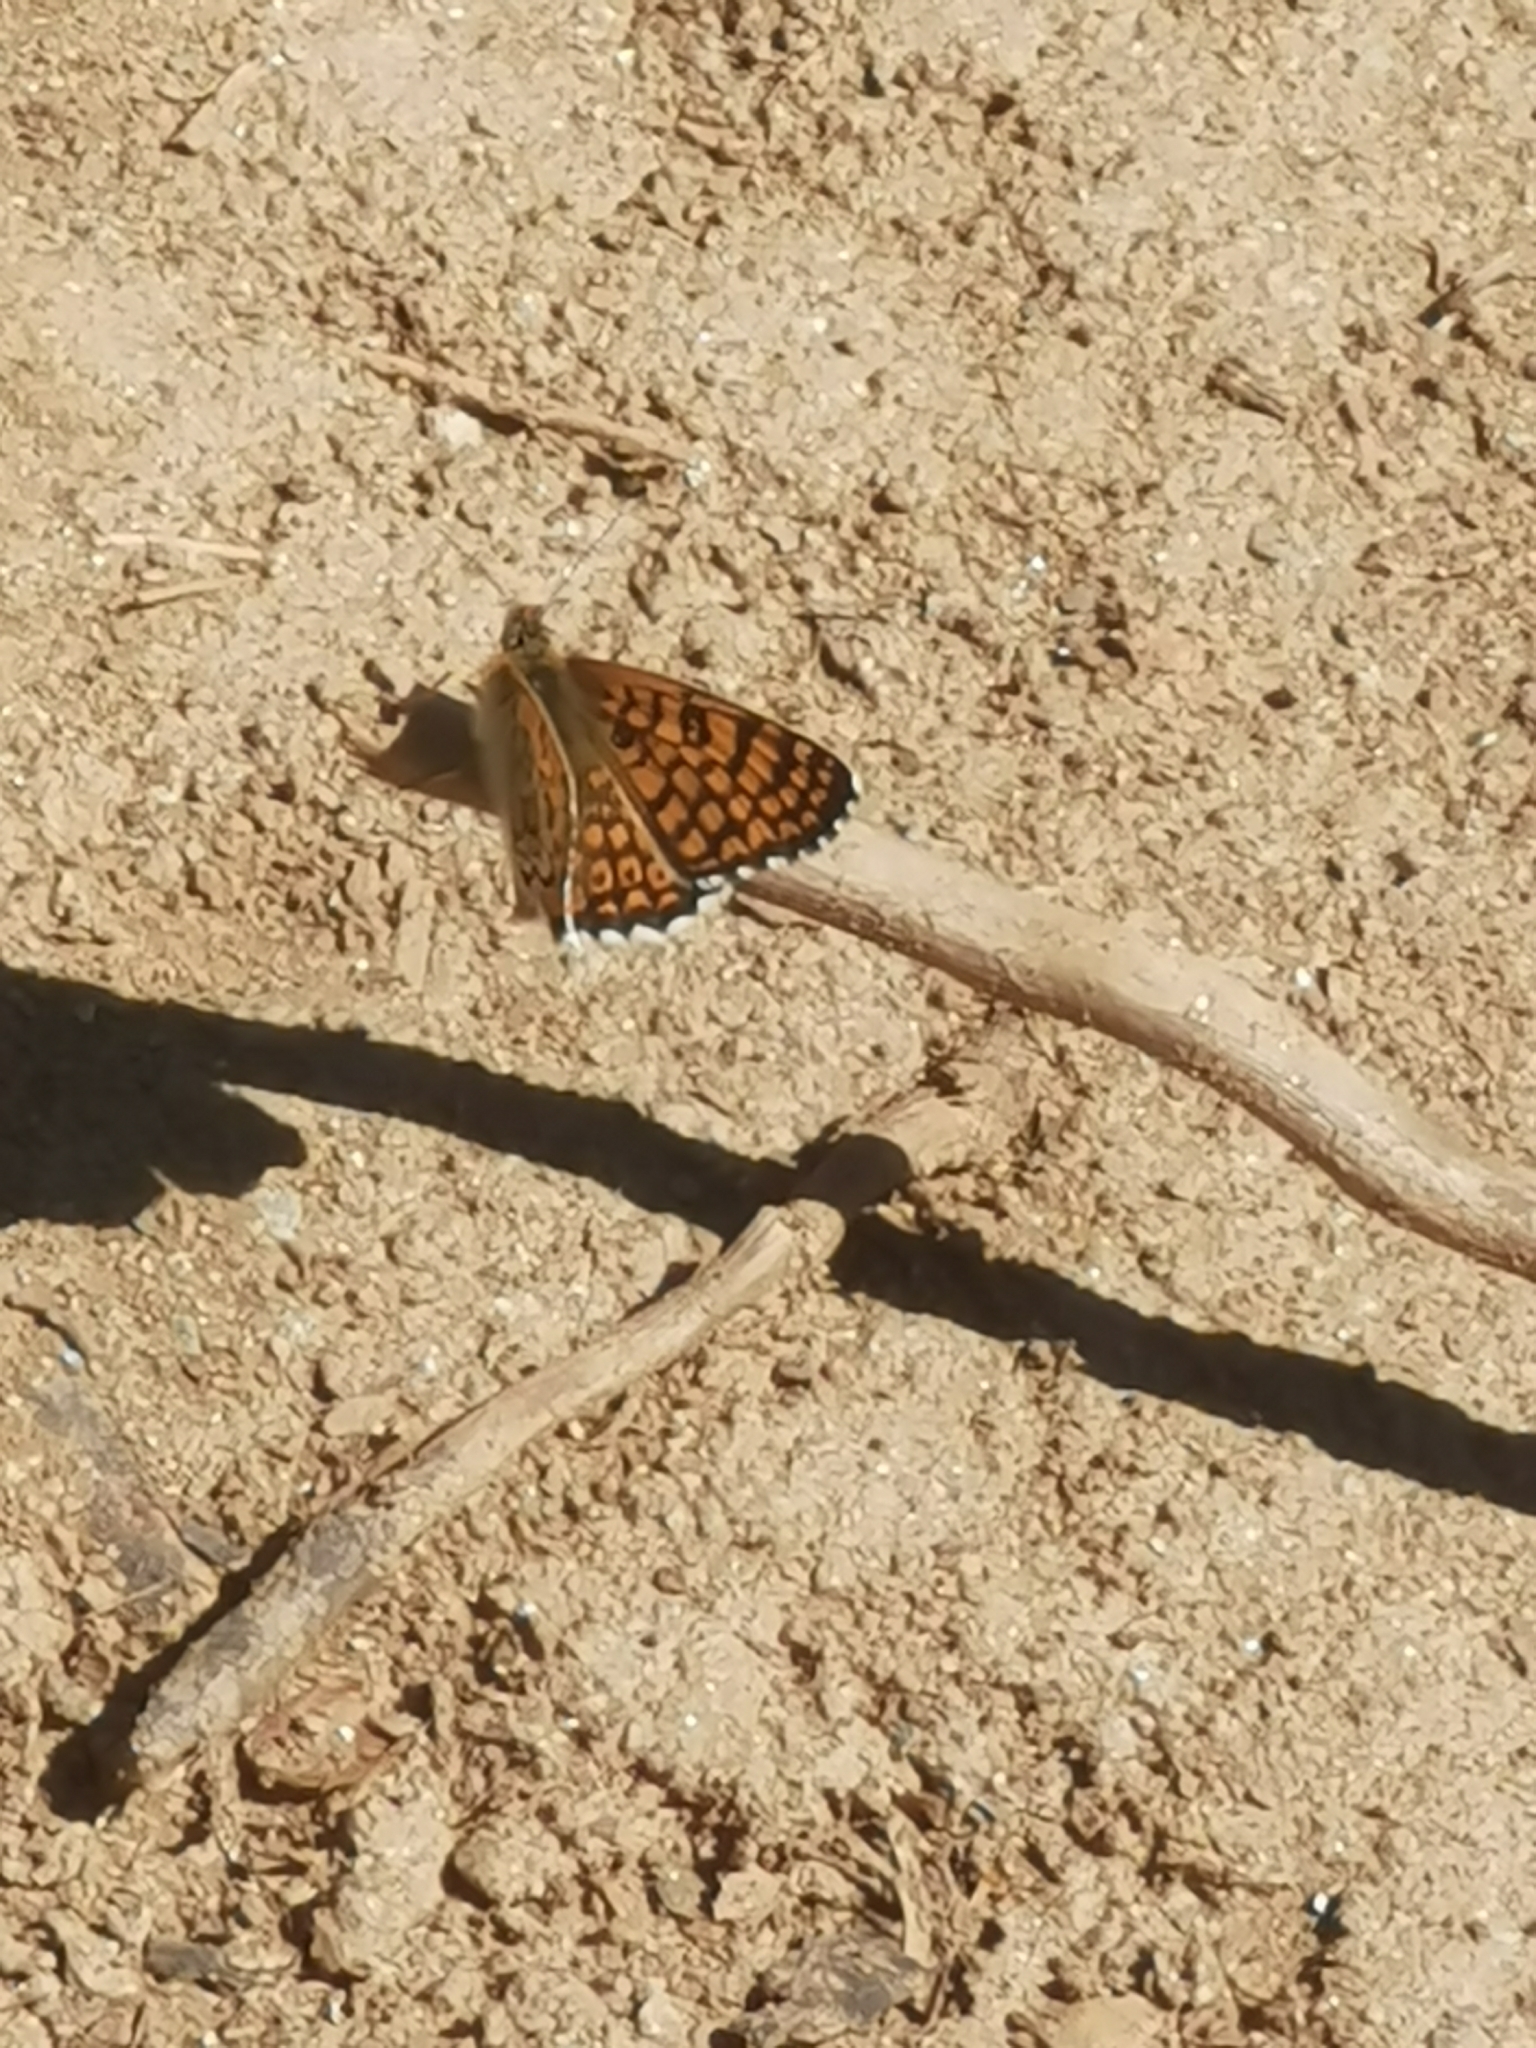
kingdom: Animalia
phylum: Arthropoda
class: Insecta
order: Lepidoptera
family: Nymphalidae
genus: Melitaea
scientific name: Melitaea cinxia
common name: Glanville fritillary
